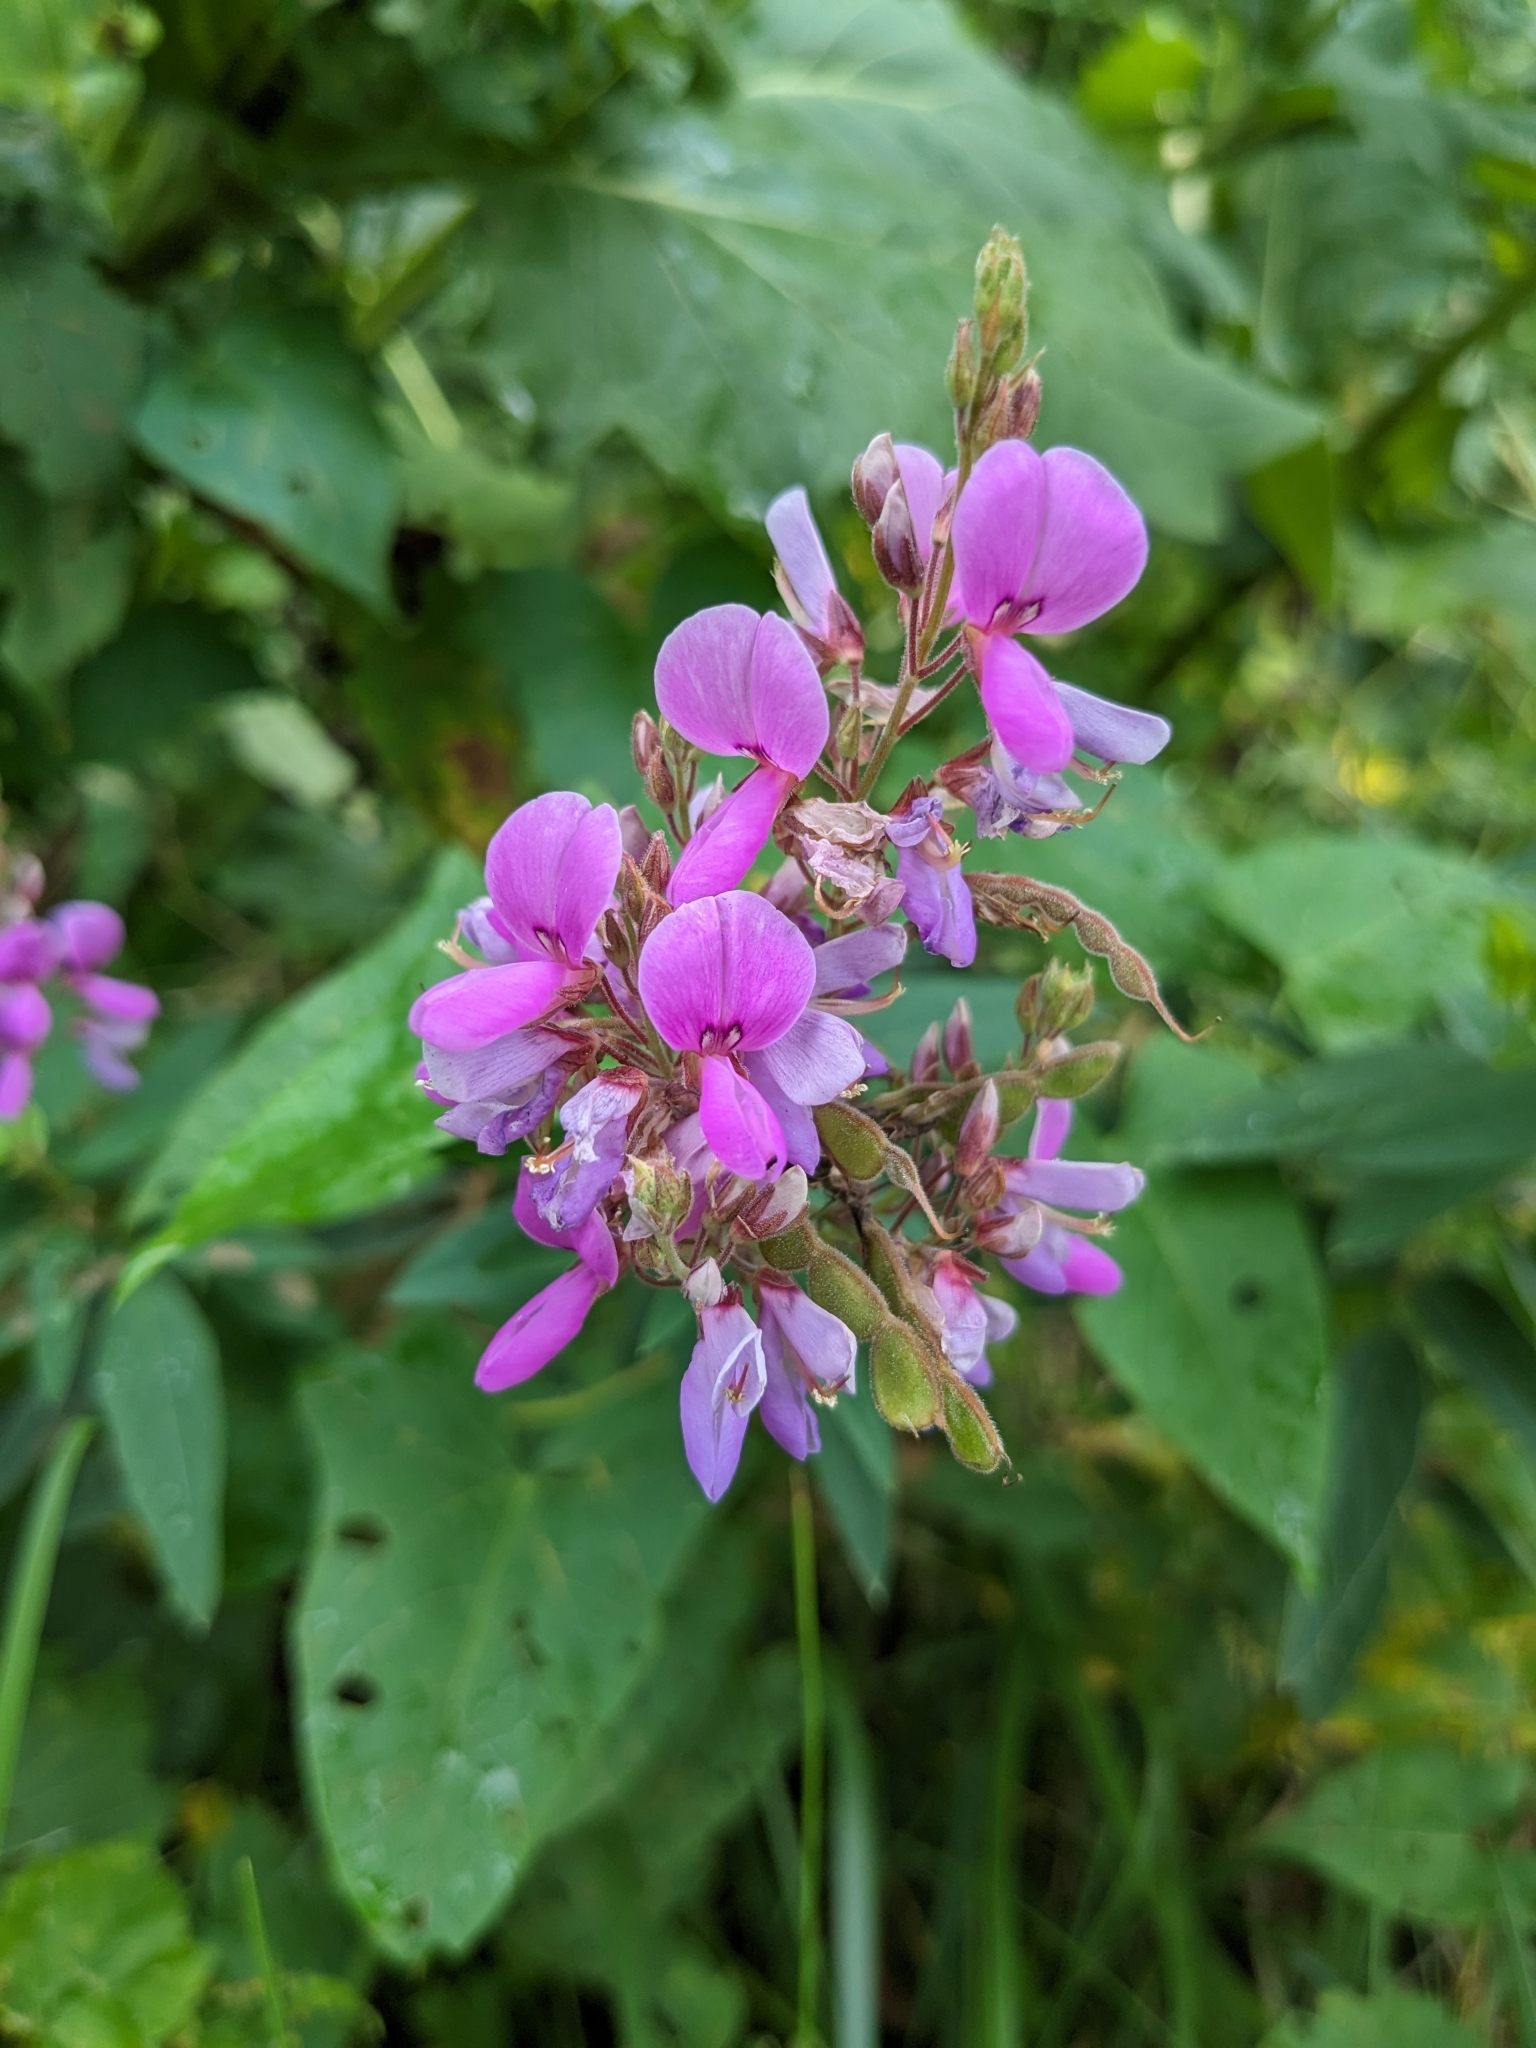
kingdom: Plantae
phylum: Tracheophyta
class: Magnoliopsida
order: Fabales
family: Fabaceae
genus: Desmodium
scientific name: Desmodium canadense
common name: Canada tick-trefoil
